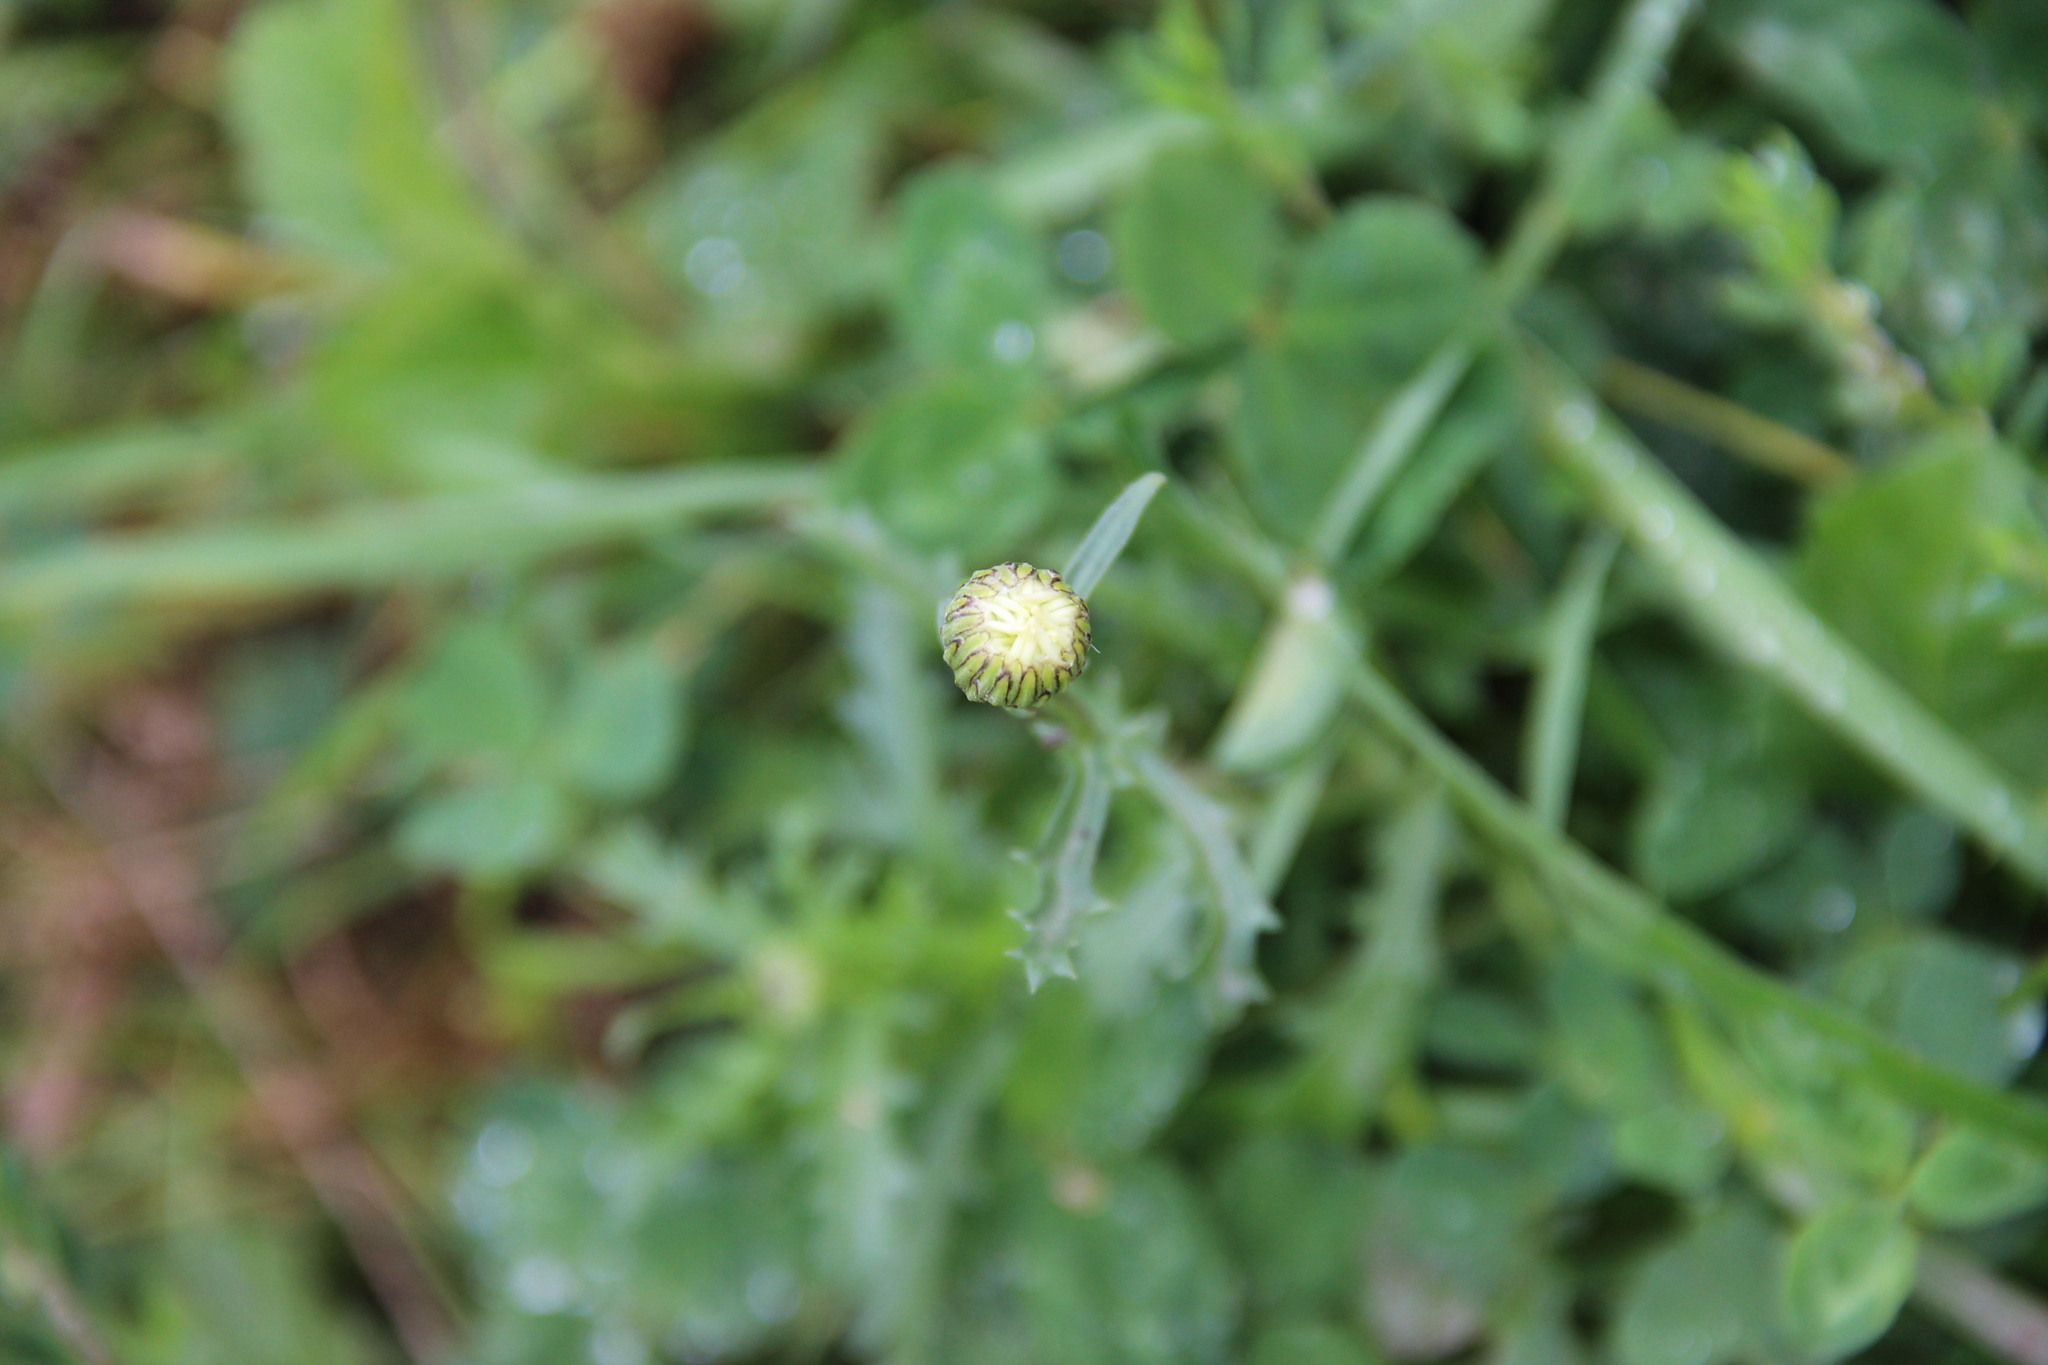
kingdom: Plantae
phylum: Tracheophyta
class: Magnoliopsida
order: Asterales
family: Asteraceae
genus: Leucanthemum
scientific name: Leucanthemum vulgare
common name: Oxeye daisy
